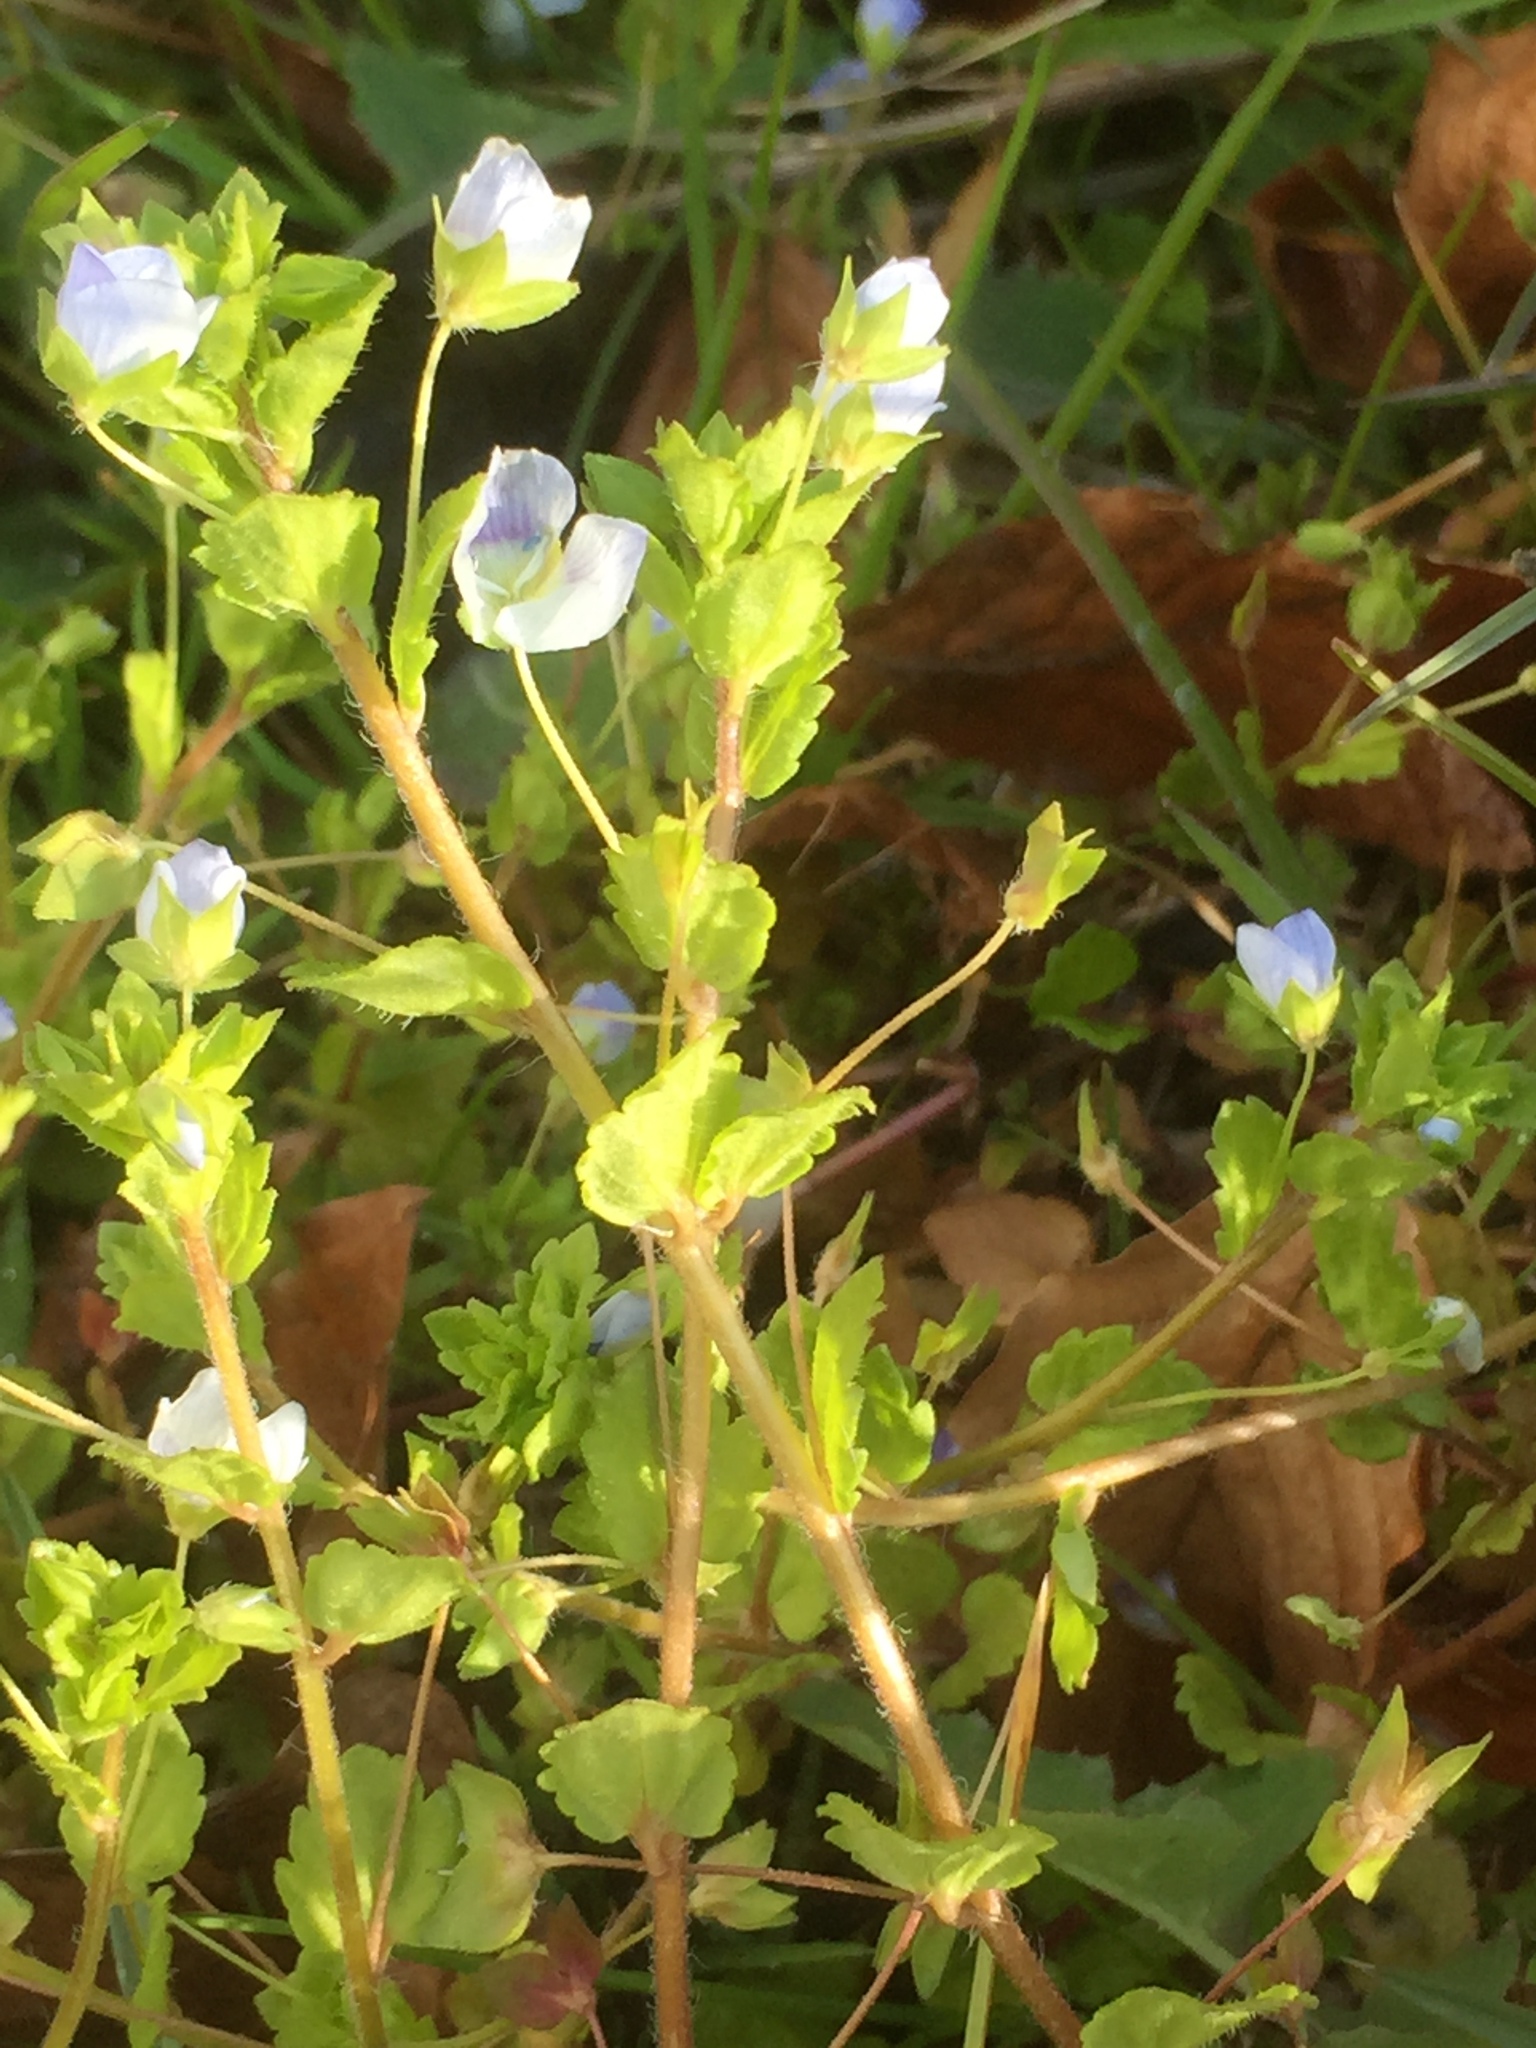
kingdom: Plantae
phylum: Tracheophyta
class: Magnoliopsida
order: Lamiales
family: Plantaginaceae
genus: Veronica
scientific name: Veronica persica
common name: Common field-speedwell
